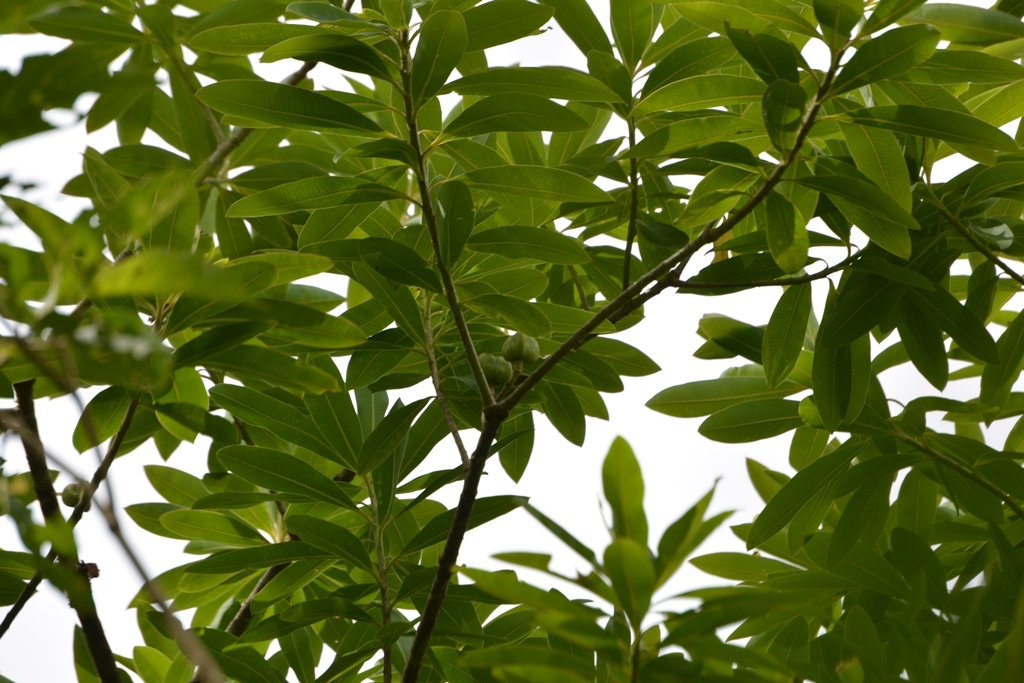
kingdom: Plantae
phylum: Tracheophyta
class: Magnoliopsida
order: Malpighiales
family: Euphorbiaceae
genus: Euphorbia
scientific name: Euphorbia lundelliana
